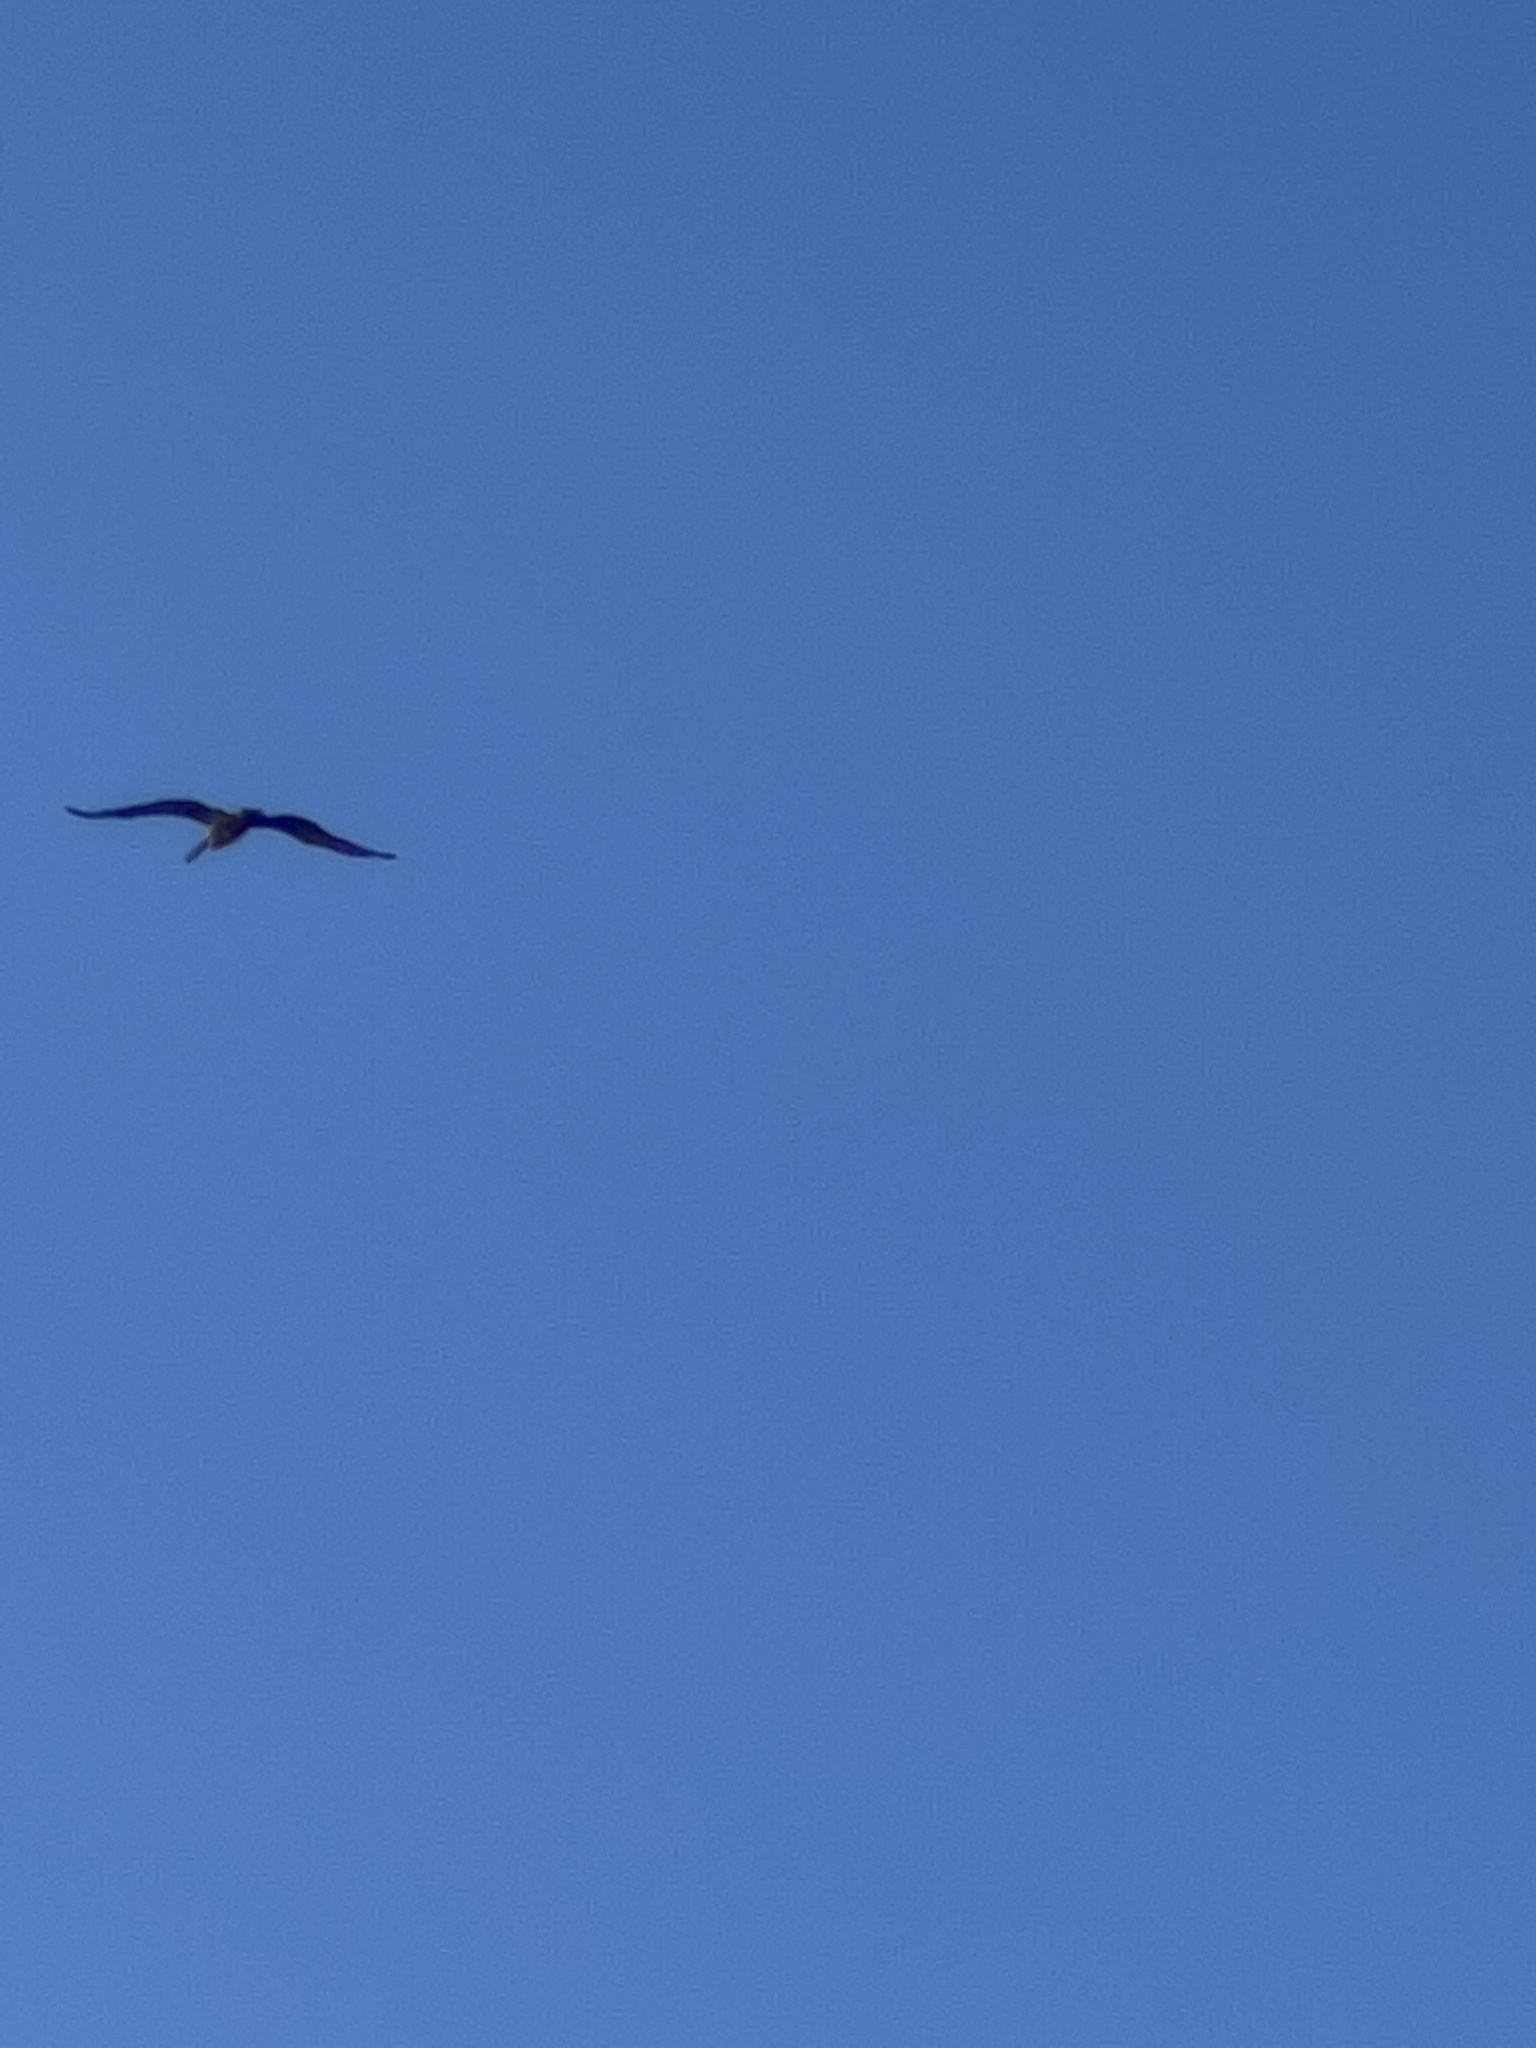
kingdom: Animalia
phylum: Chordata
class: Aves
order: Pelecaniformes
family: Pelecanidae
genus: Pelecanus
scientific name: Pelecanus occidentalis
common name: Brown pelican
